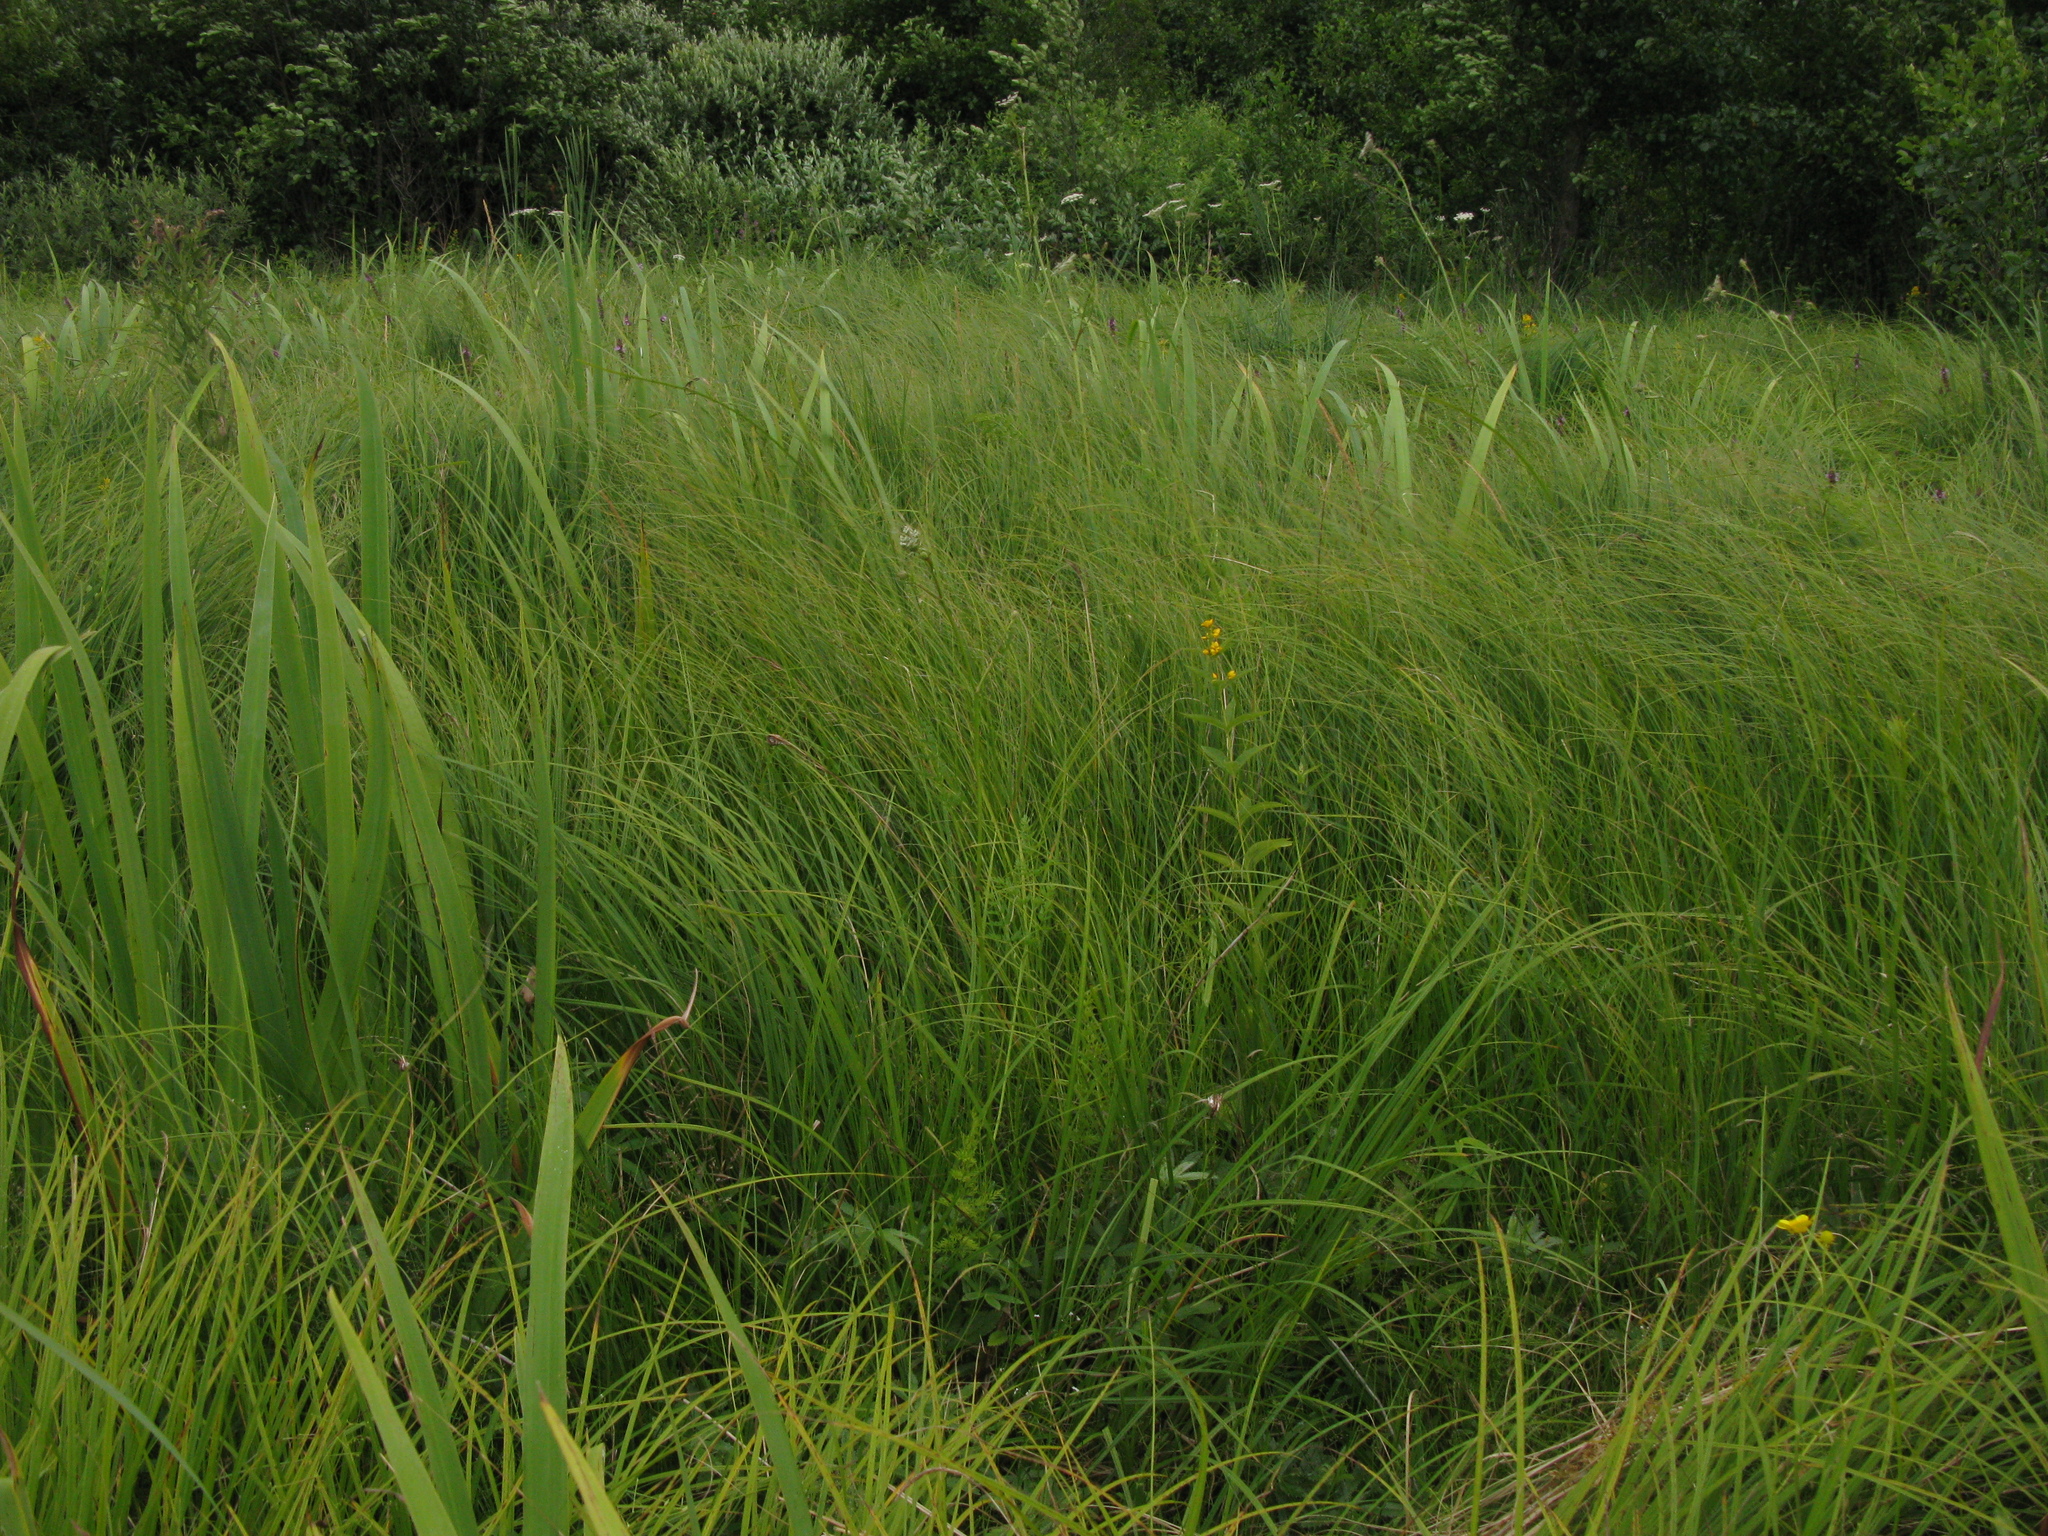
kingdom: Plantae
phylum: Tracheophyta
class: Magnoliopsida
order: Ericales
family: Primulaceae
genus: Lysimachia
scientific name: Lysimachia vulgaris
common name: Yellow loosestrife
